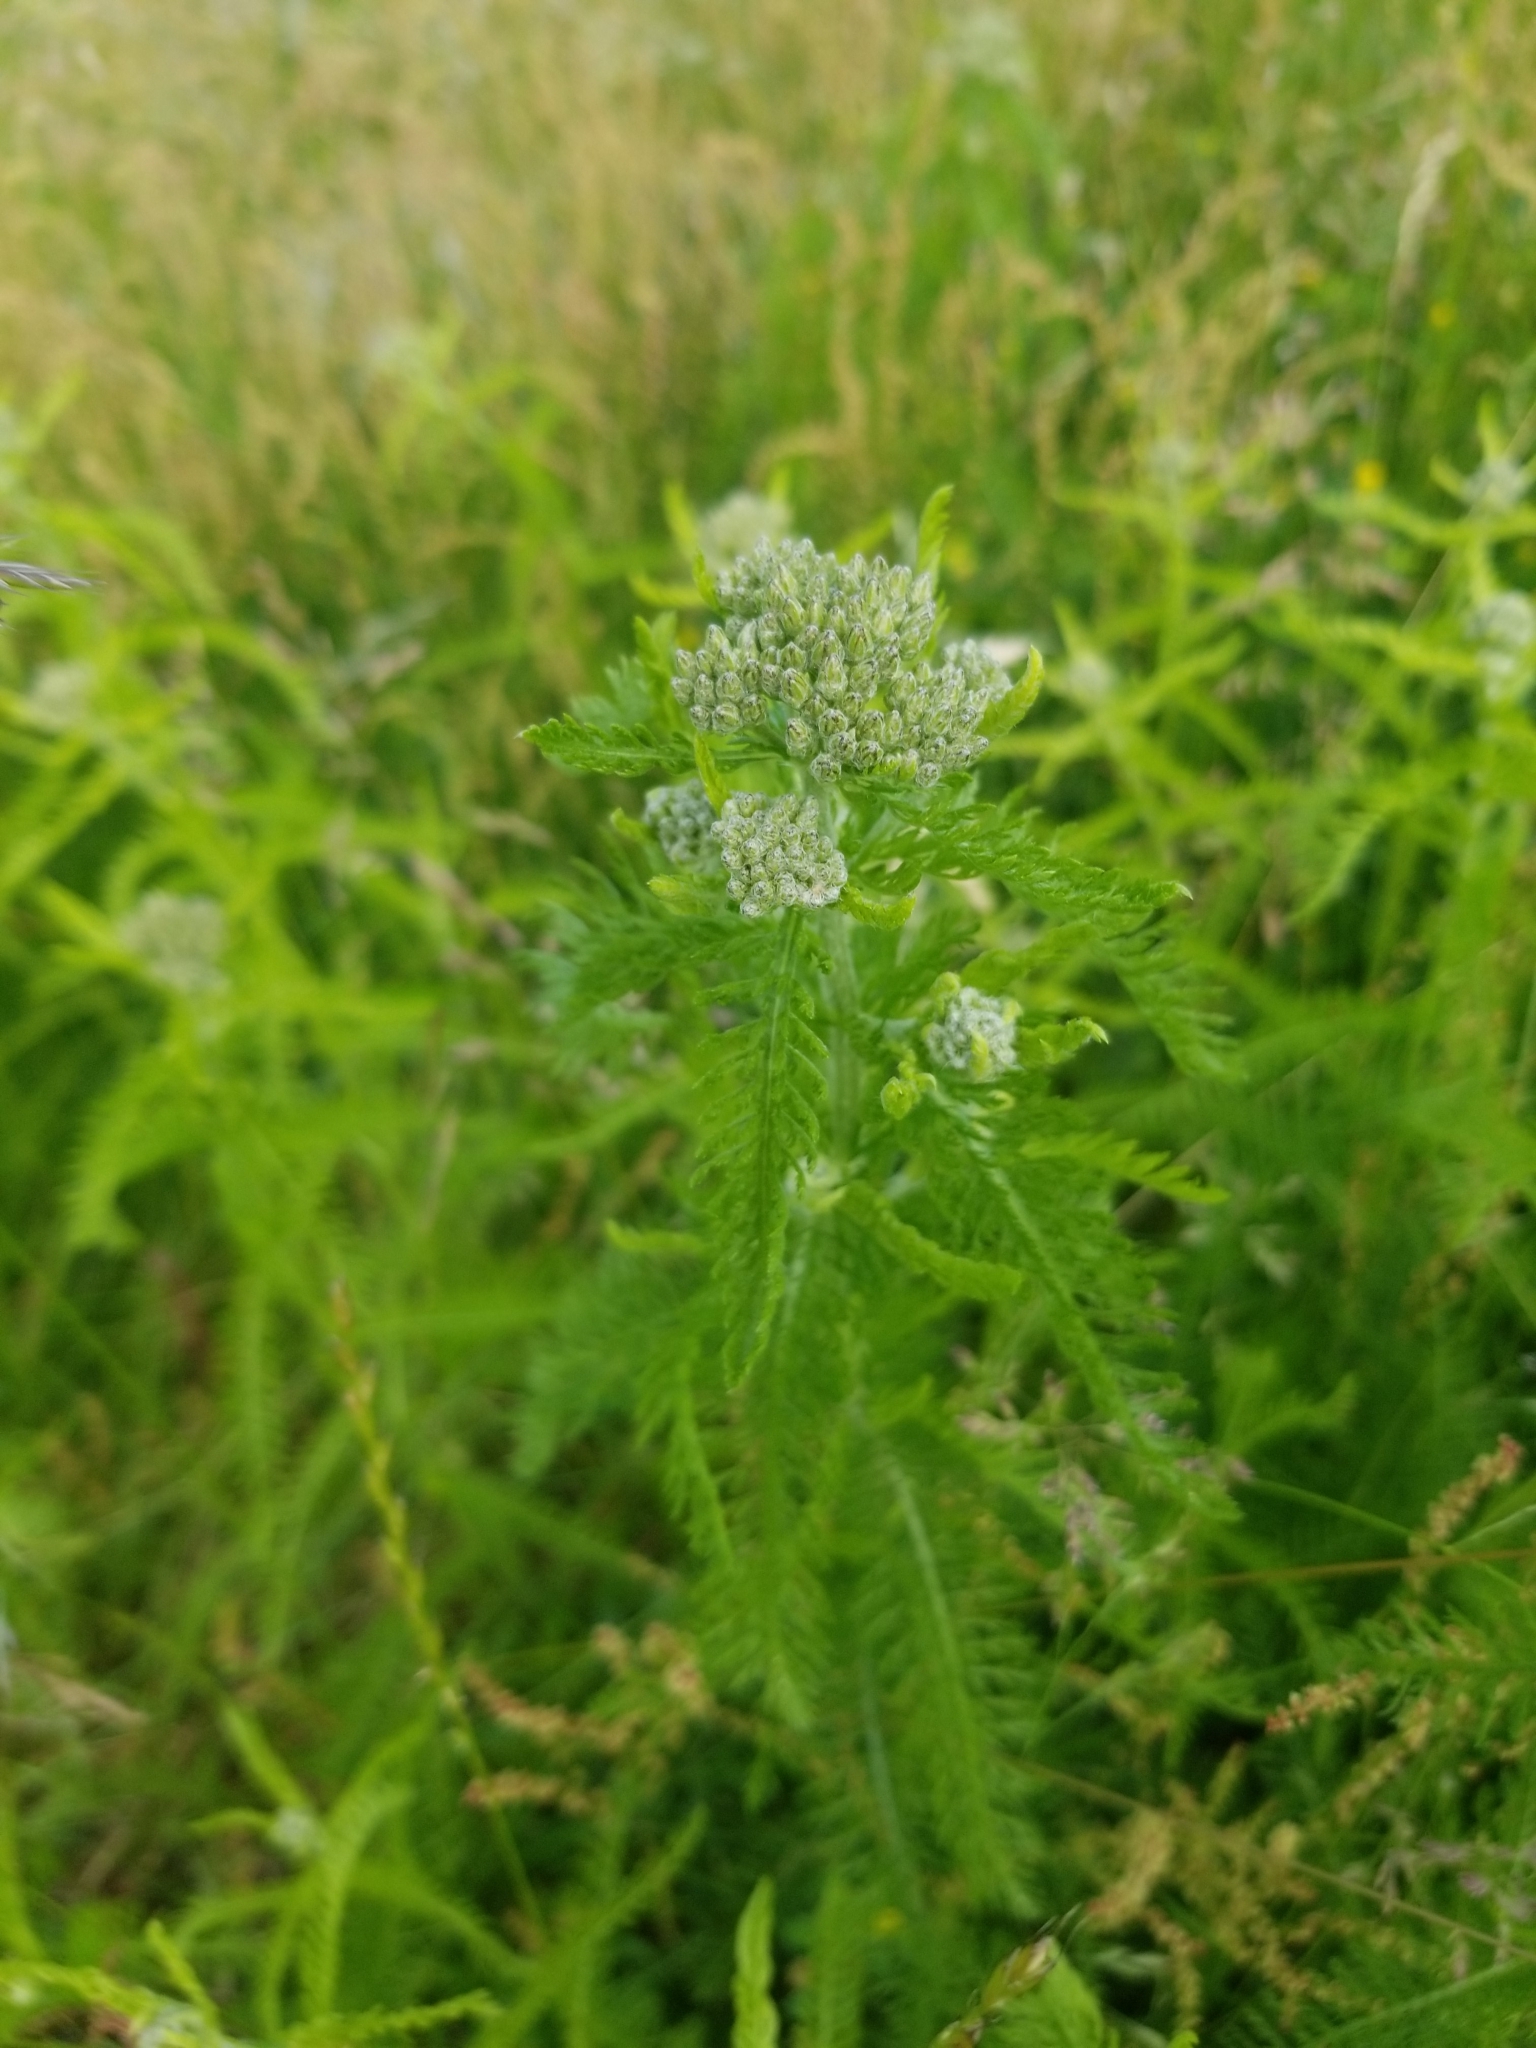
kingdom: Plantae
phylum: Tracheophyta
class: Magnoliopsida
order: Asterales
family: Asteraceae
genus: Achillea
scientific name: Achillea millefolium
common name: Yarrow
